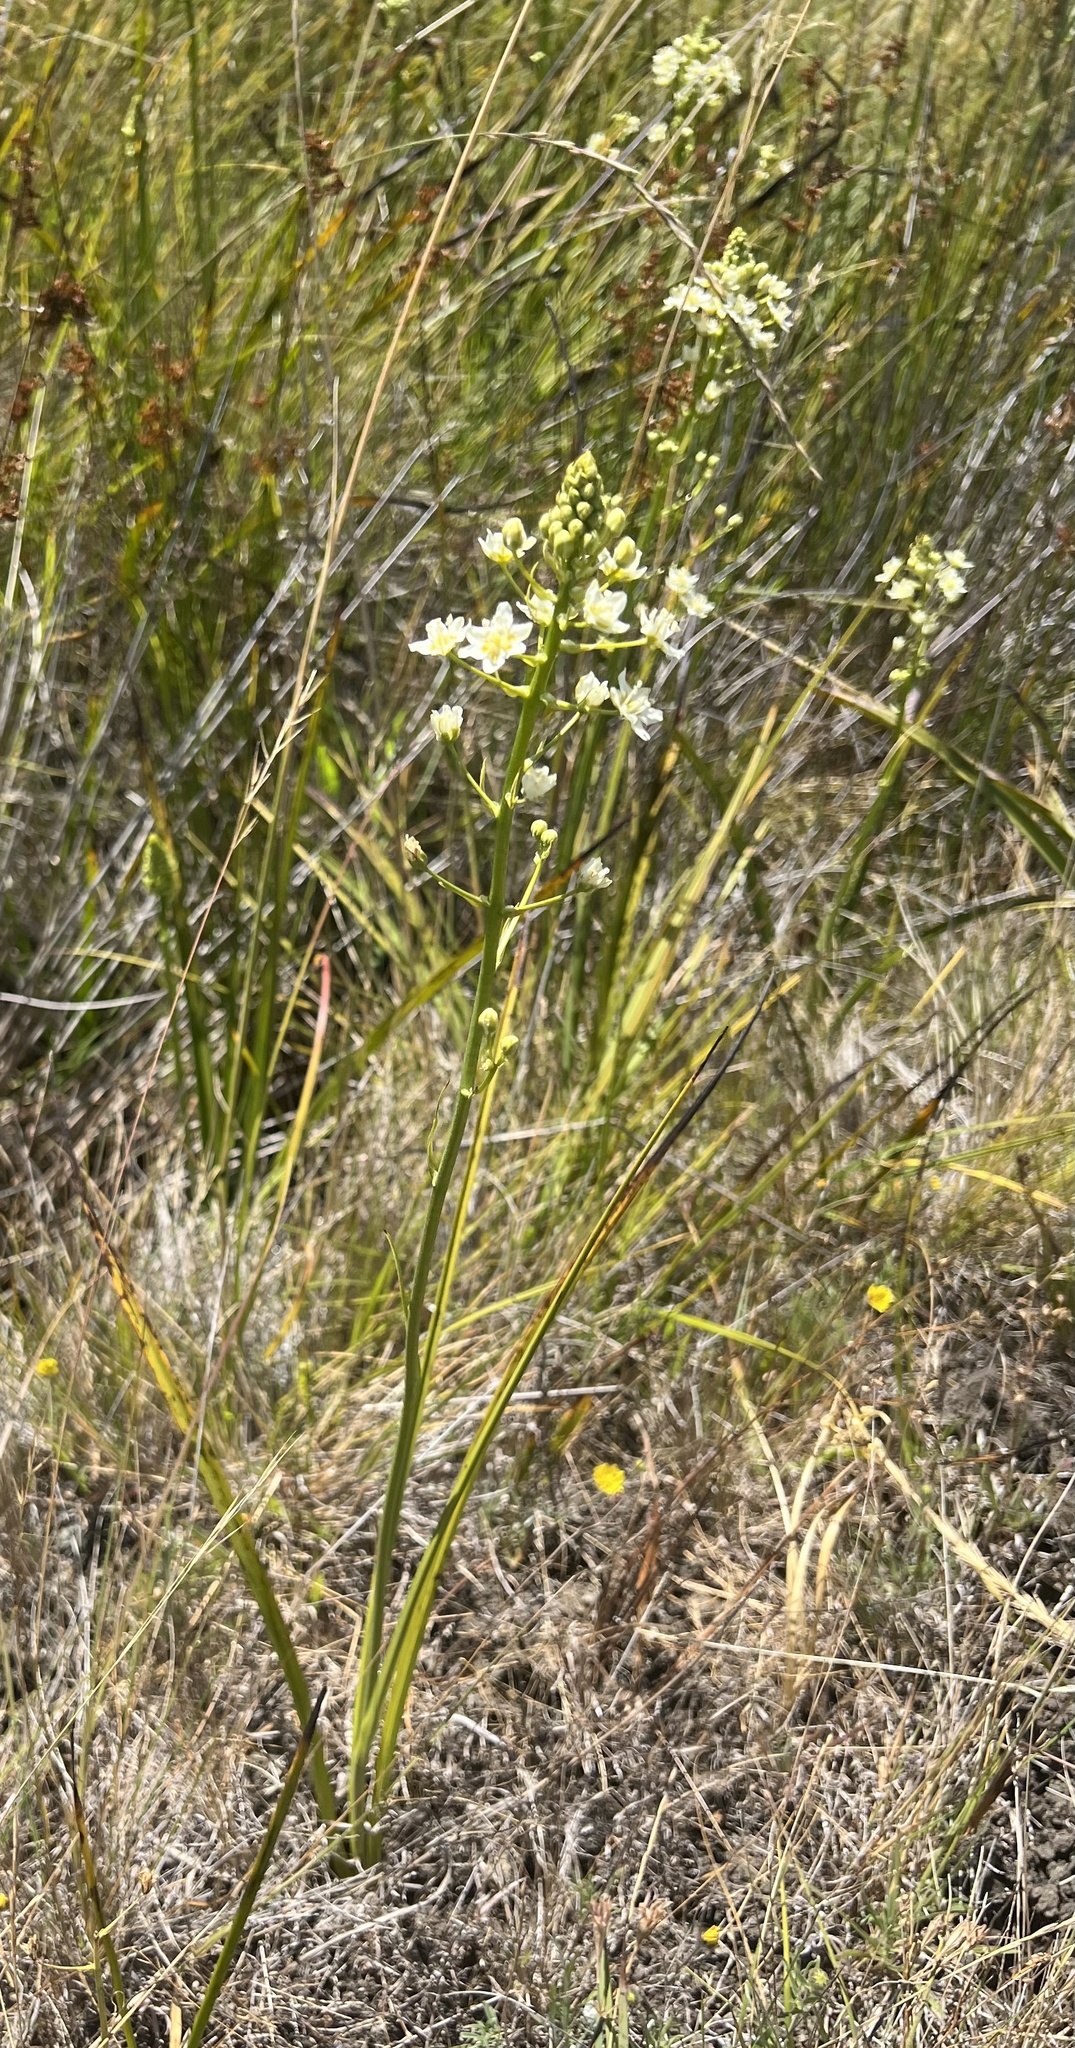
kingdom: Plantae
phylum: Tracheophyta
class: Liliopsida
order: Liliales
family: Melanthiaceae
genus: Toxicoscordion
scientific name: Toxicoscordion fontanum
